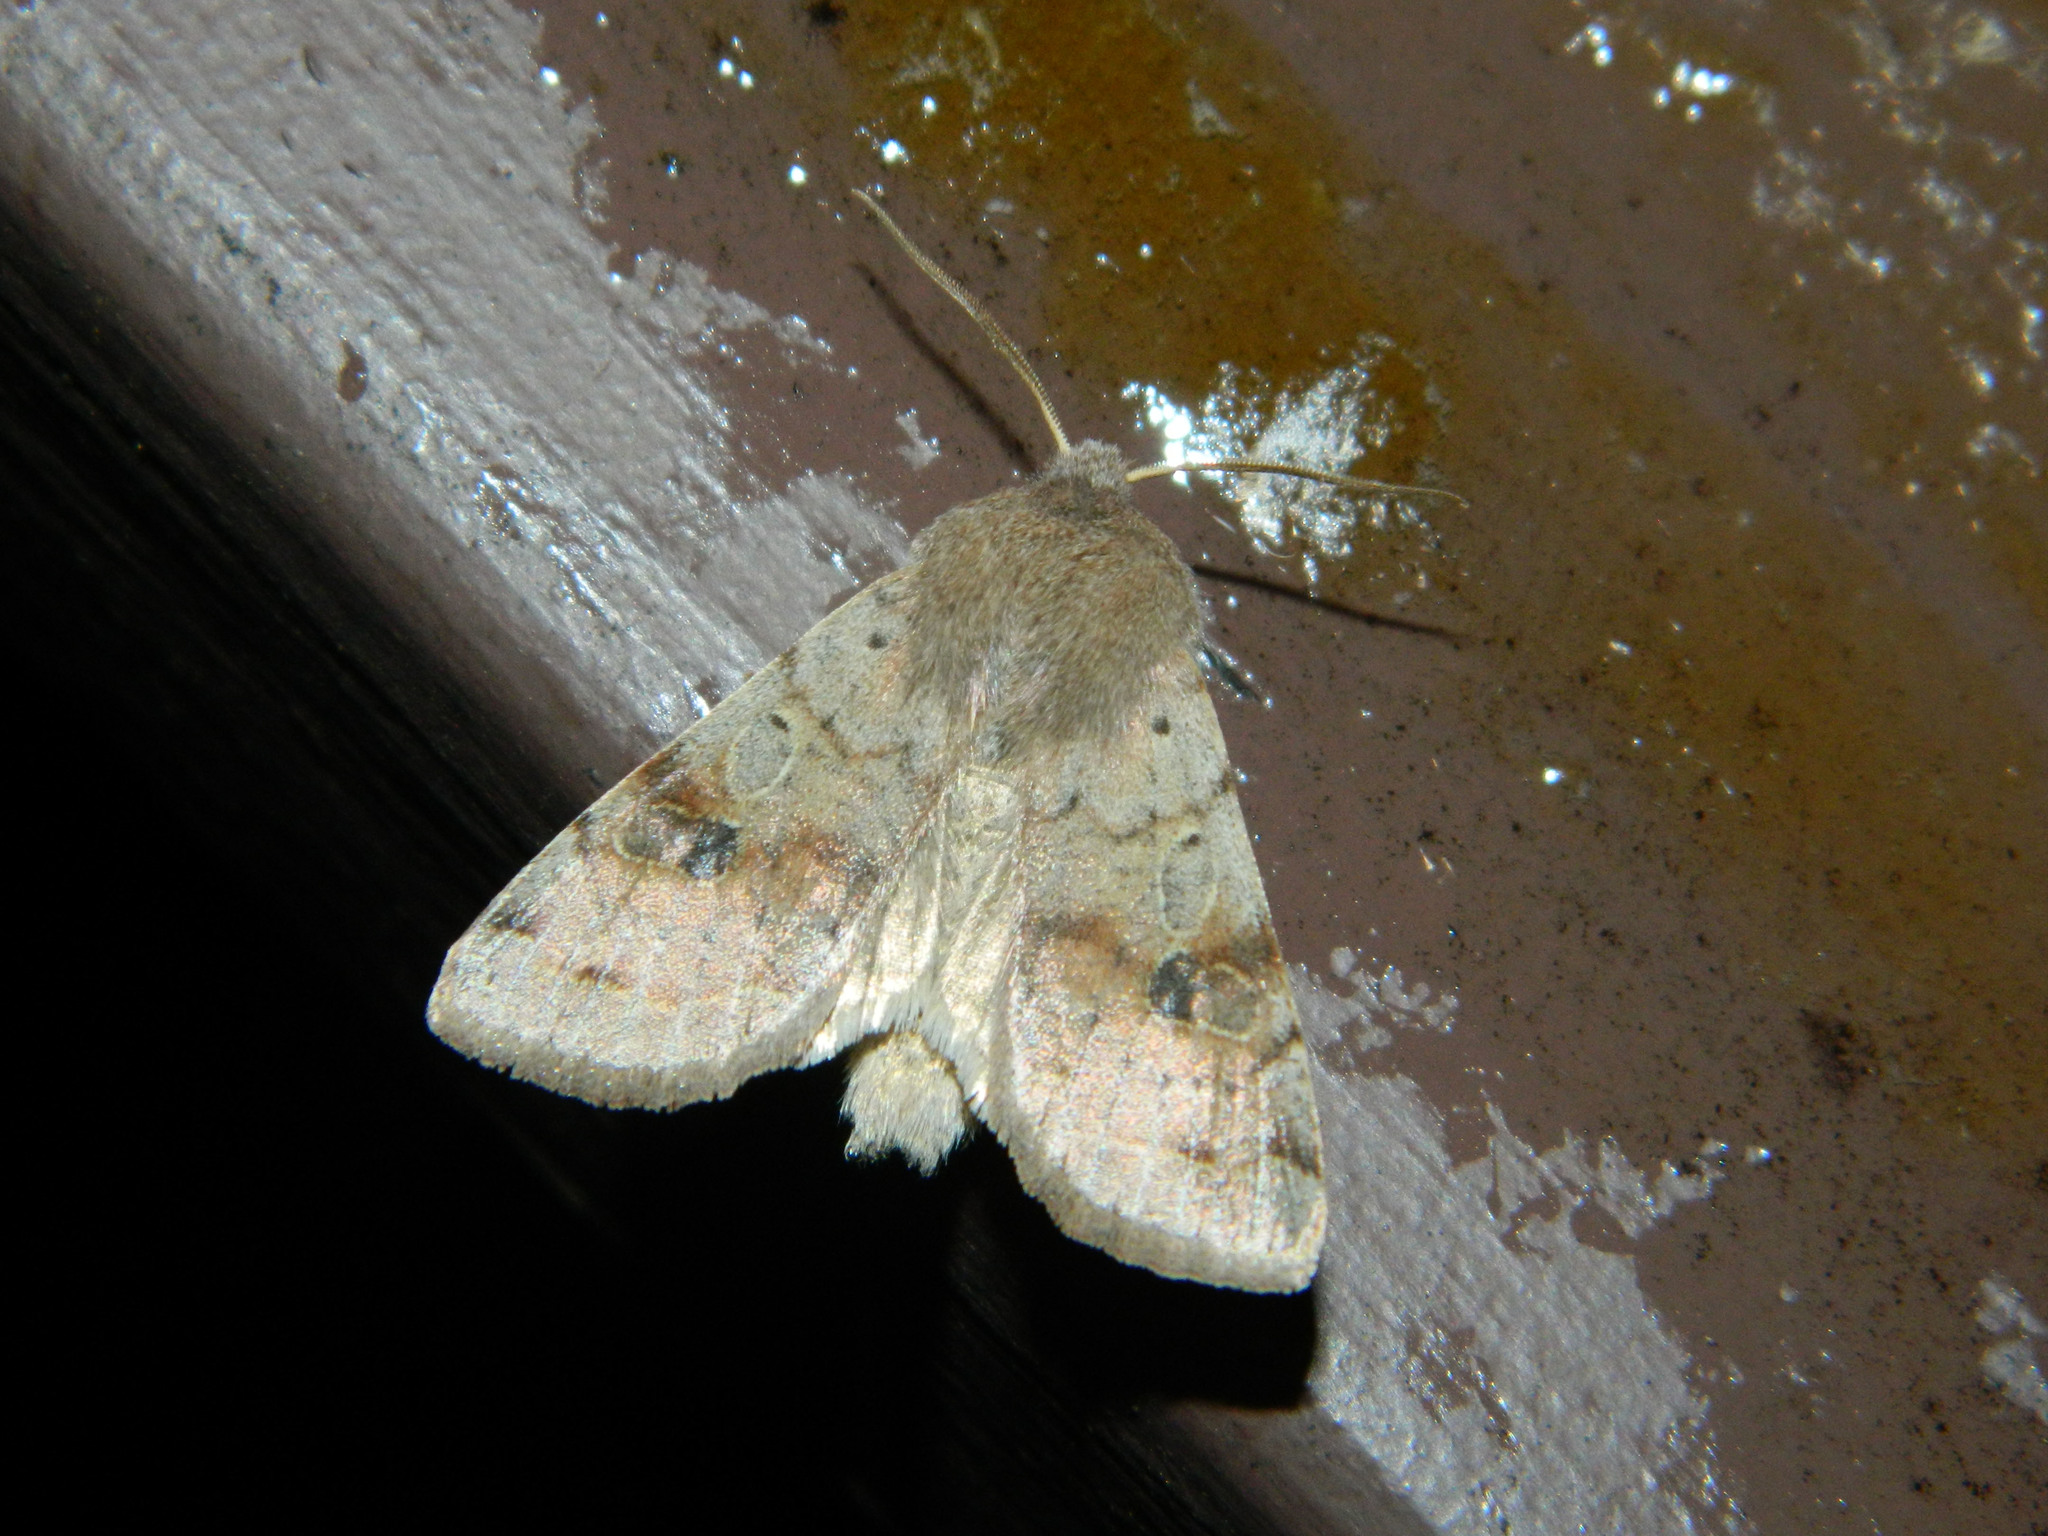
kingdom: Animalia
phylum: Arthropoda
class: Insecta
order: Lepidoptera
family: Noctuidae
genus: Orthosia
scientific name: Orthosia hibisci
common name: Green fruitworm
